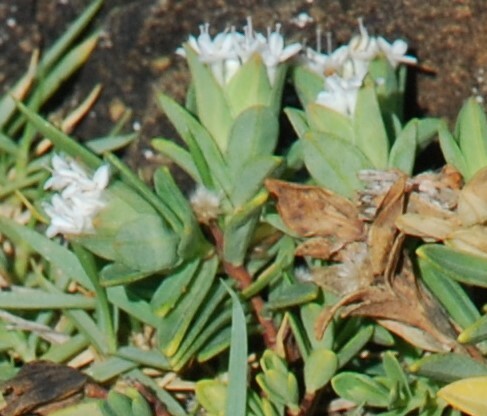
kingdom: Plantae
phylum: Tracheophyta
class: Magnoliopsida
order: Malvales
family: Thymelaeaceae
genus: Pimelea
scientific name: Pimelea linifolia
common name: Queen-of-the-bush
